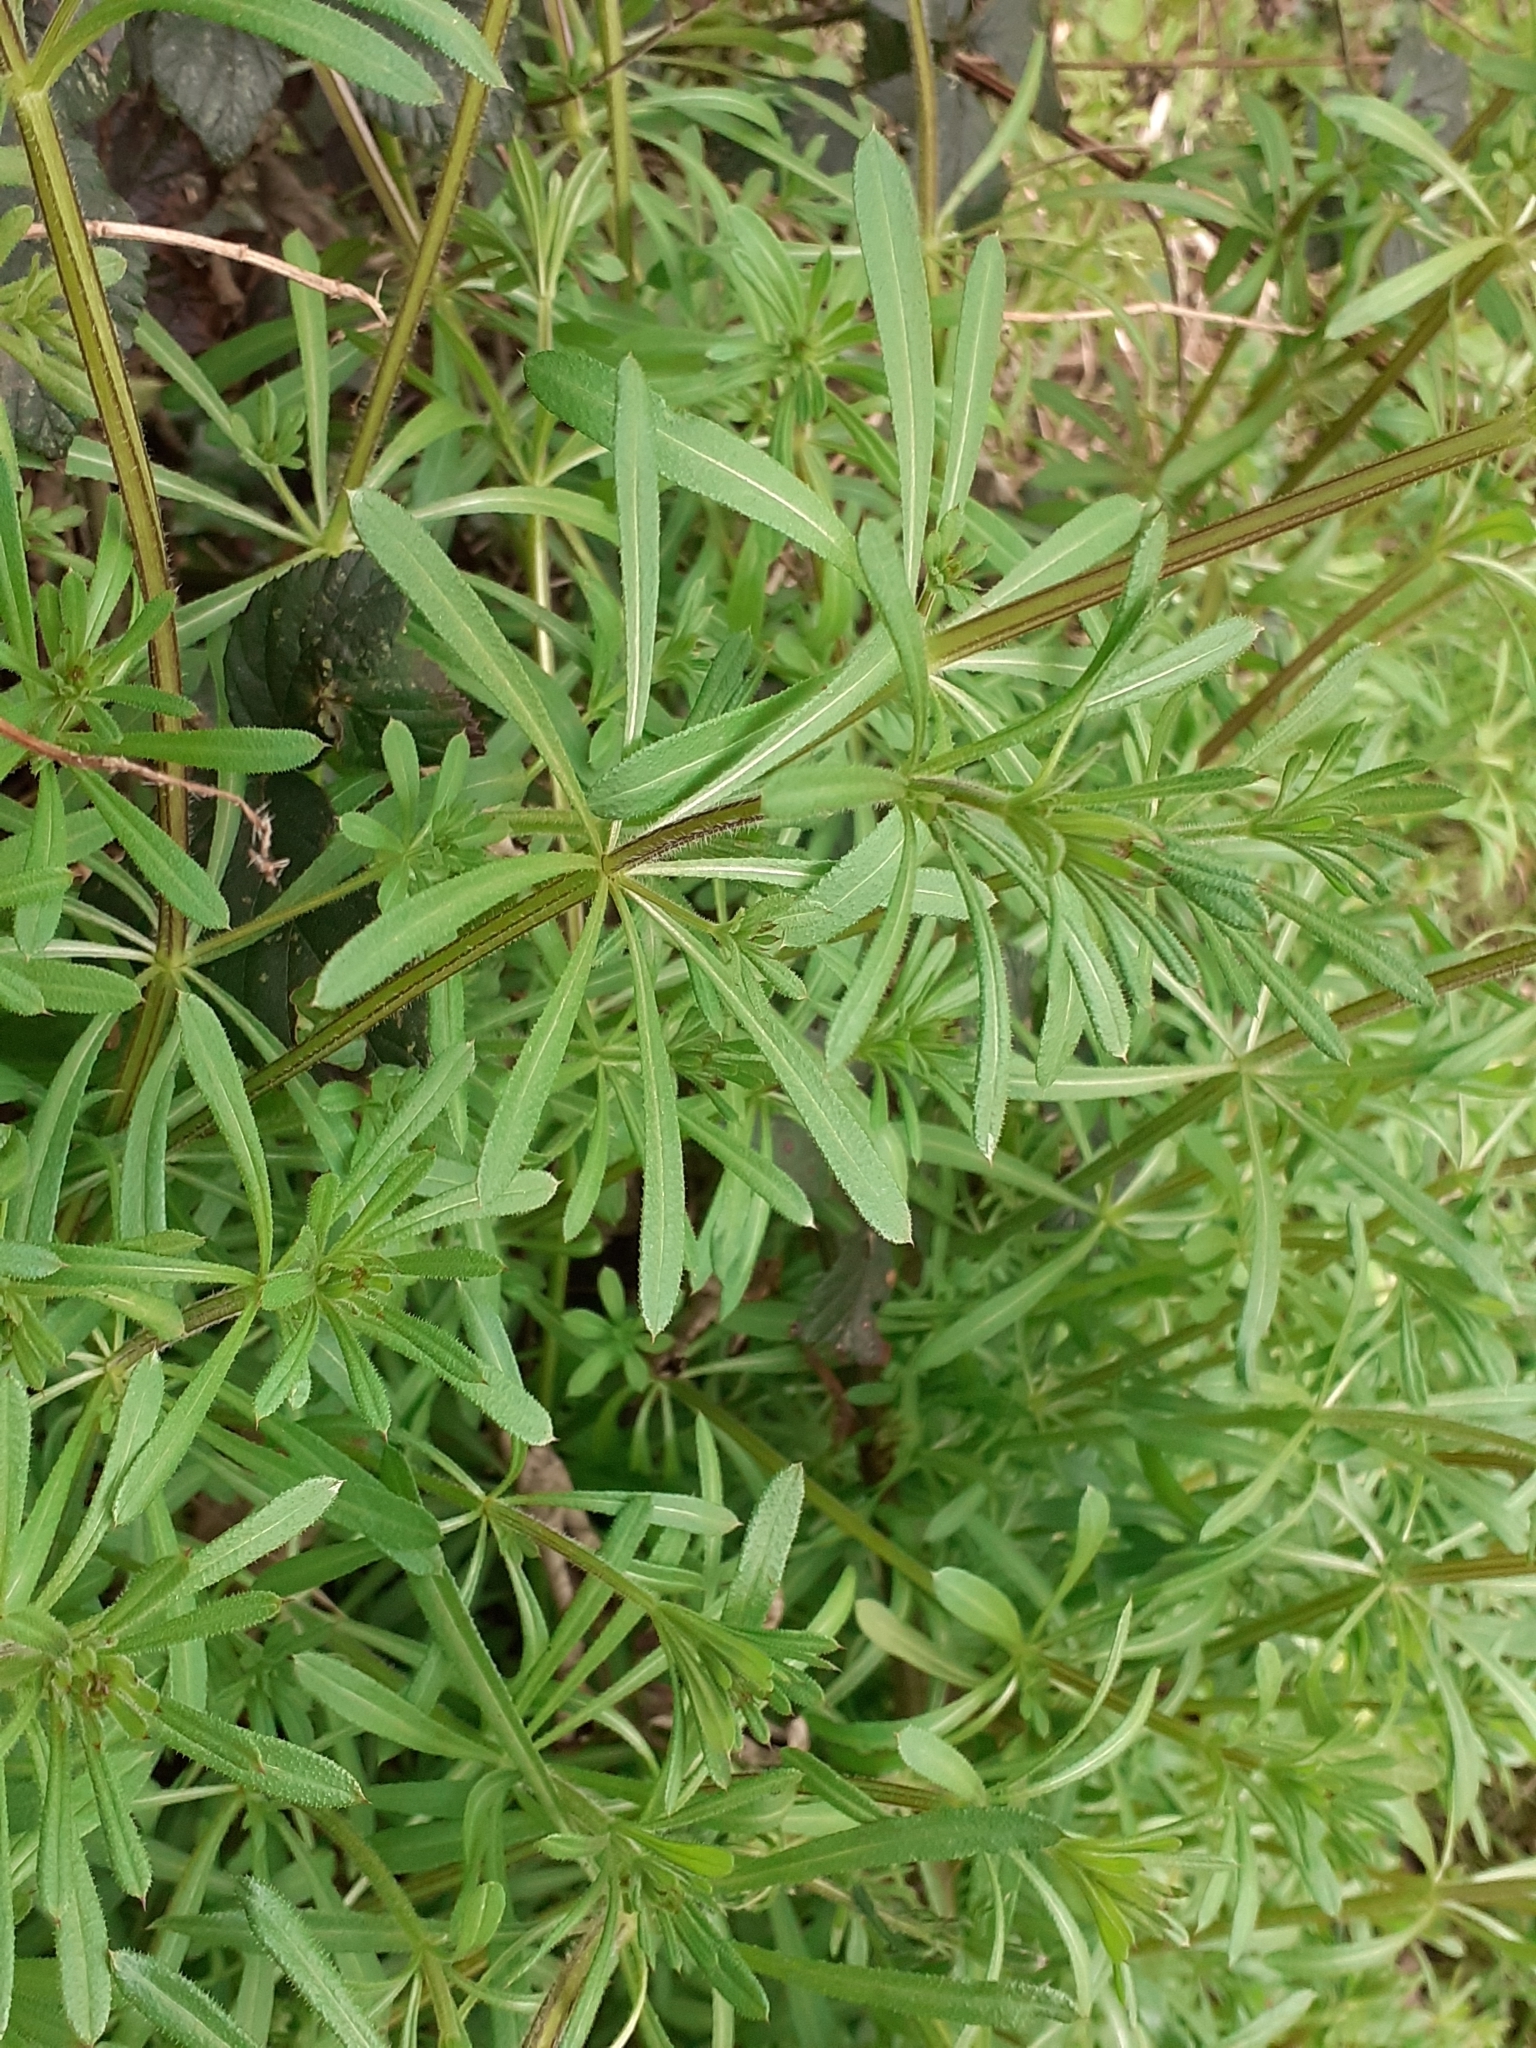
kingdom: Plantae
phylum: Tracheophyta
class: Magnoliopsida
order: Gentianales
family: Rubiaceae
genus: Galium
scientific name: Galium aparine
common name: Cleavers
